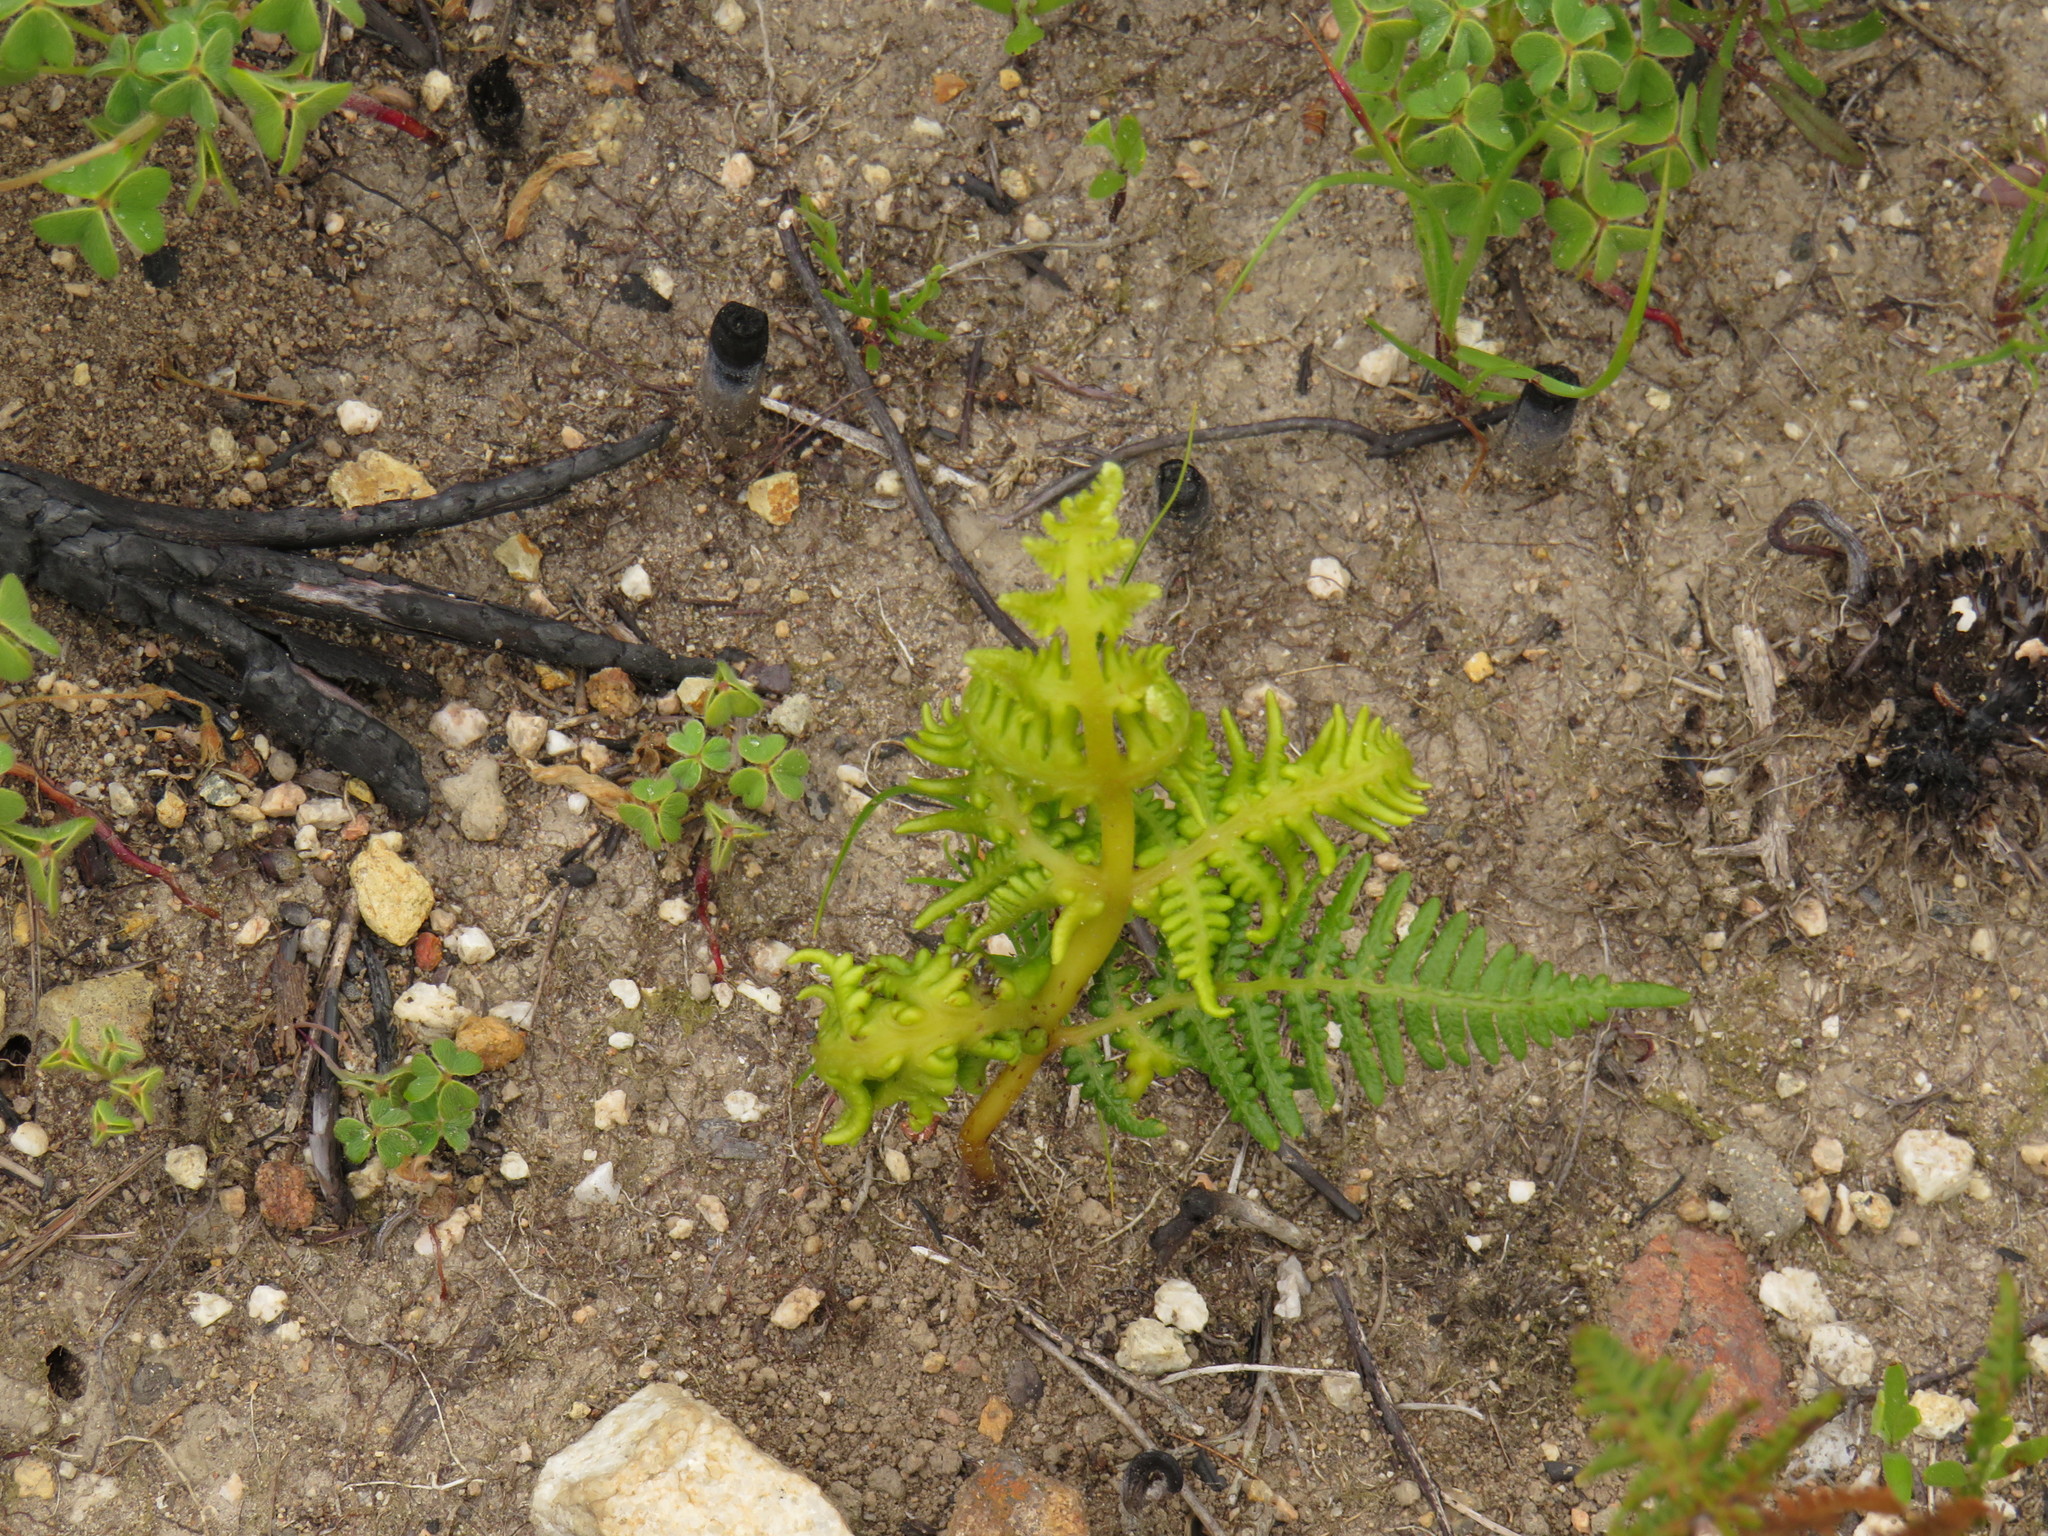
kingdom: Animalia
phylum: Arthropoda
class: Arachnida
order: Trombidiformes
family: Eriophyidae
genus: Eriophyes
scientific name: Eriophyes
